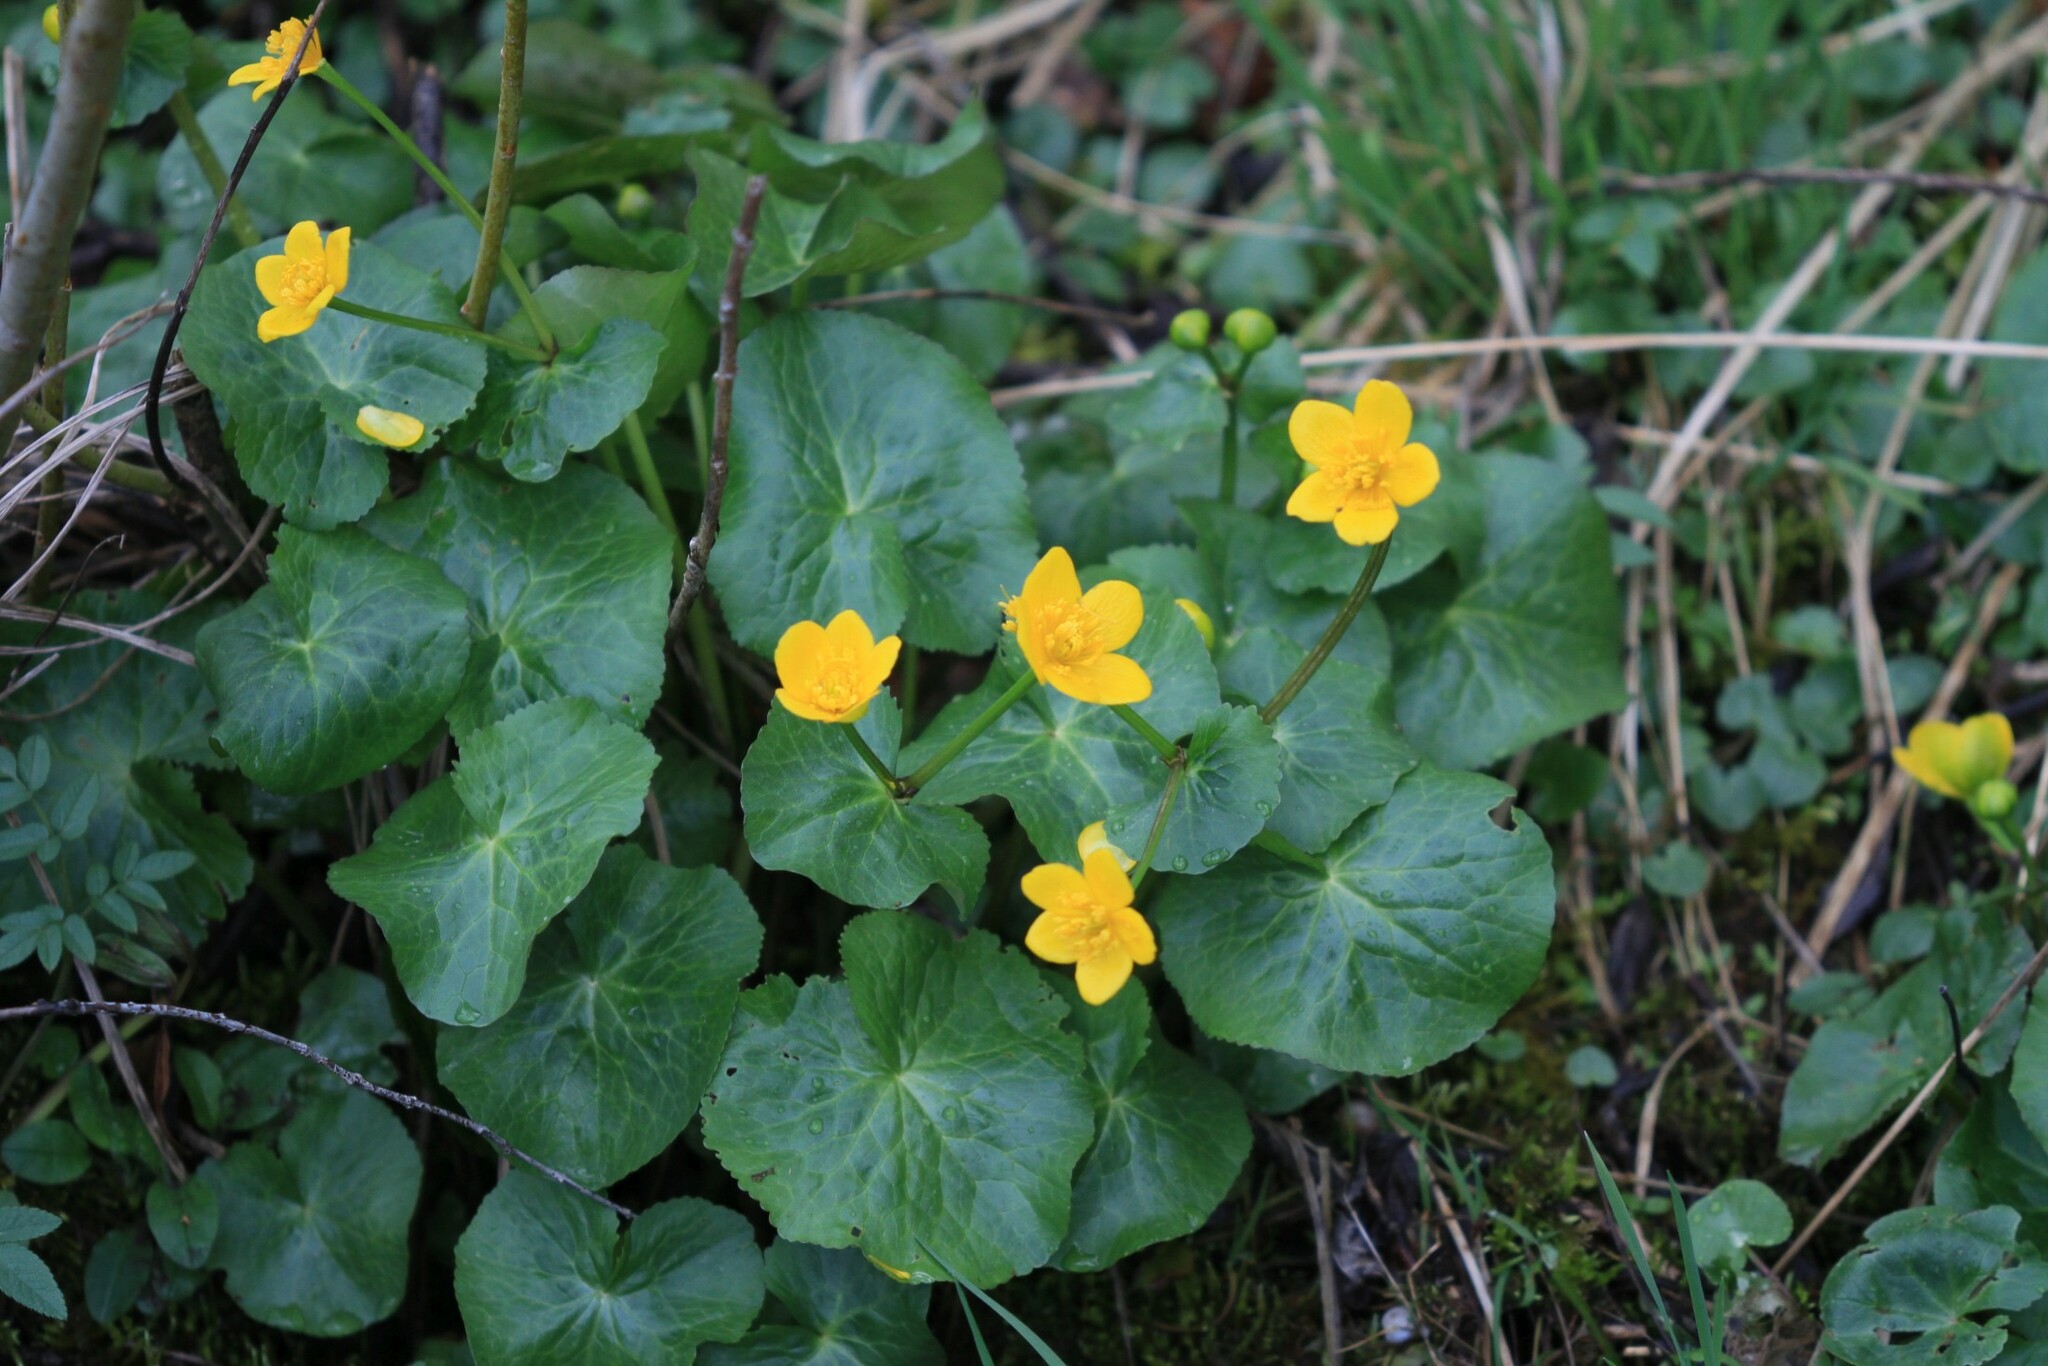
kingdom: Plantae
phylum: Tracheophyta
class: Magnoliopsida
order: Ranunculales
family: Ranunculaceae
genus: Caltha
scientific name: Caltha palustris
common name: Marsh marigold
